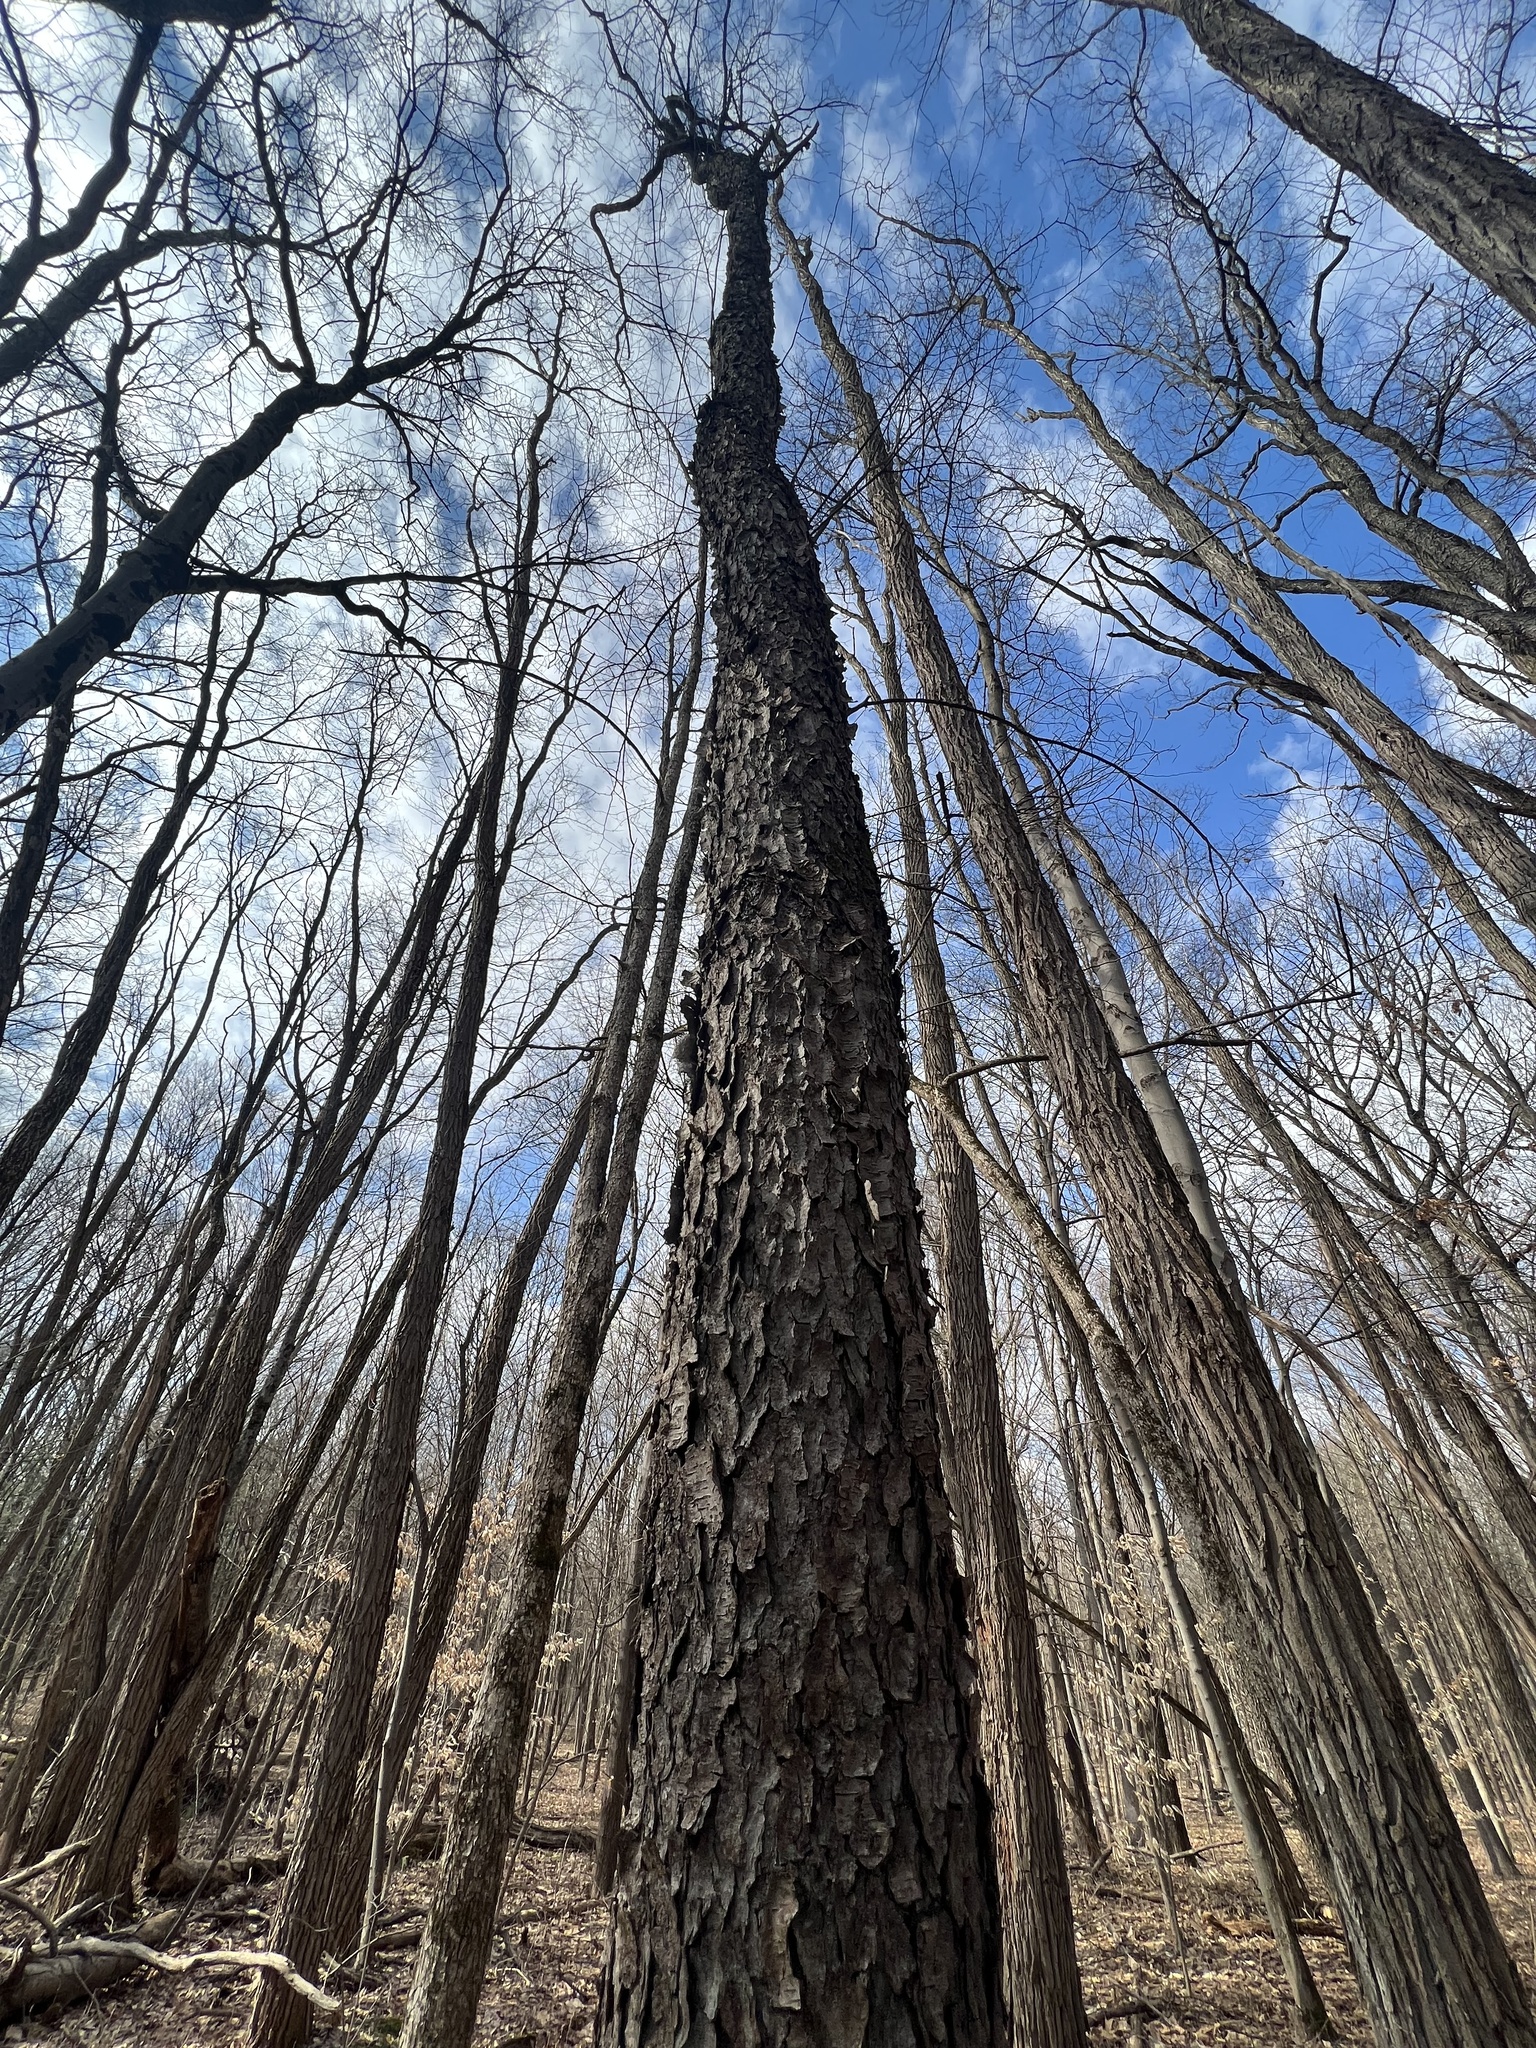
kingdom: Plantae
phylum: Tracheophyta
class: Magnoliopsida
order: Rosales
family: Rosaceae
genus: Prunus
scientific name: Prunus serotina
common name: Black cherry
